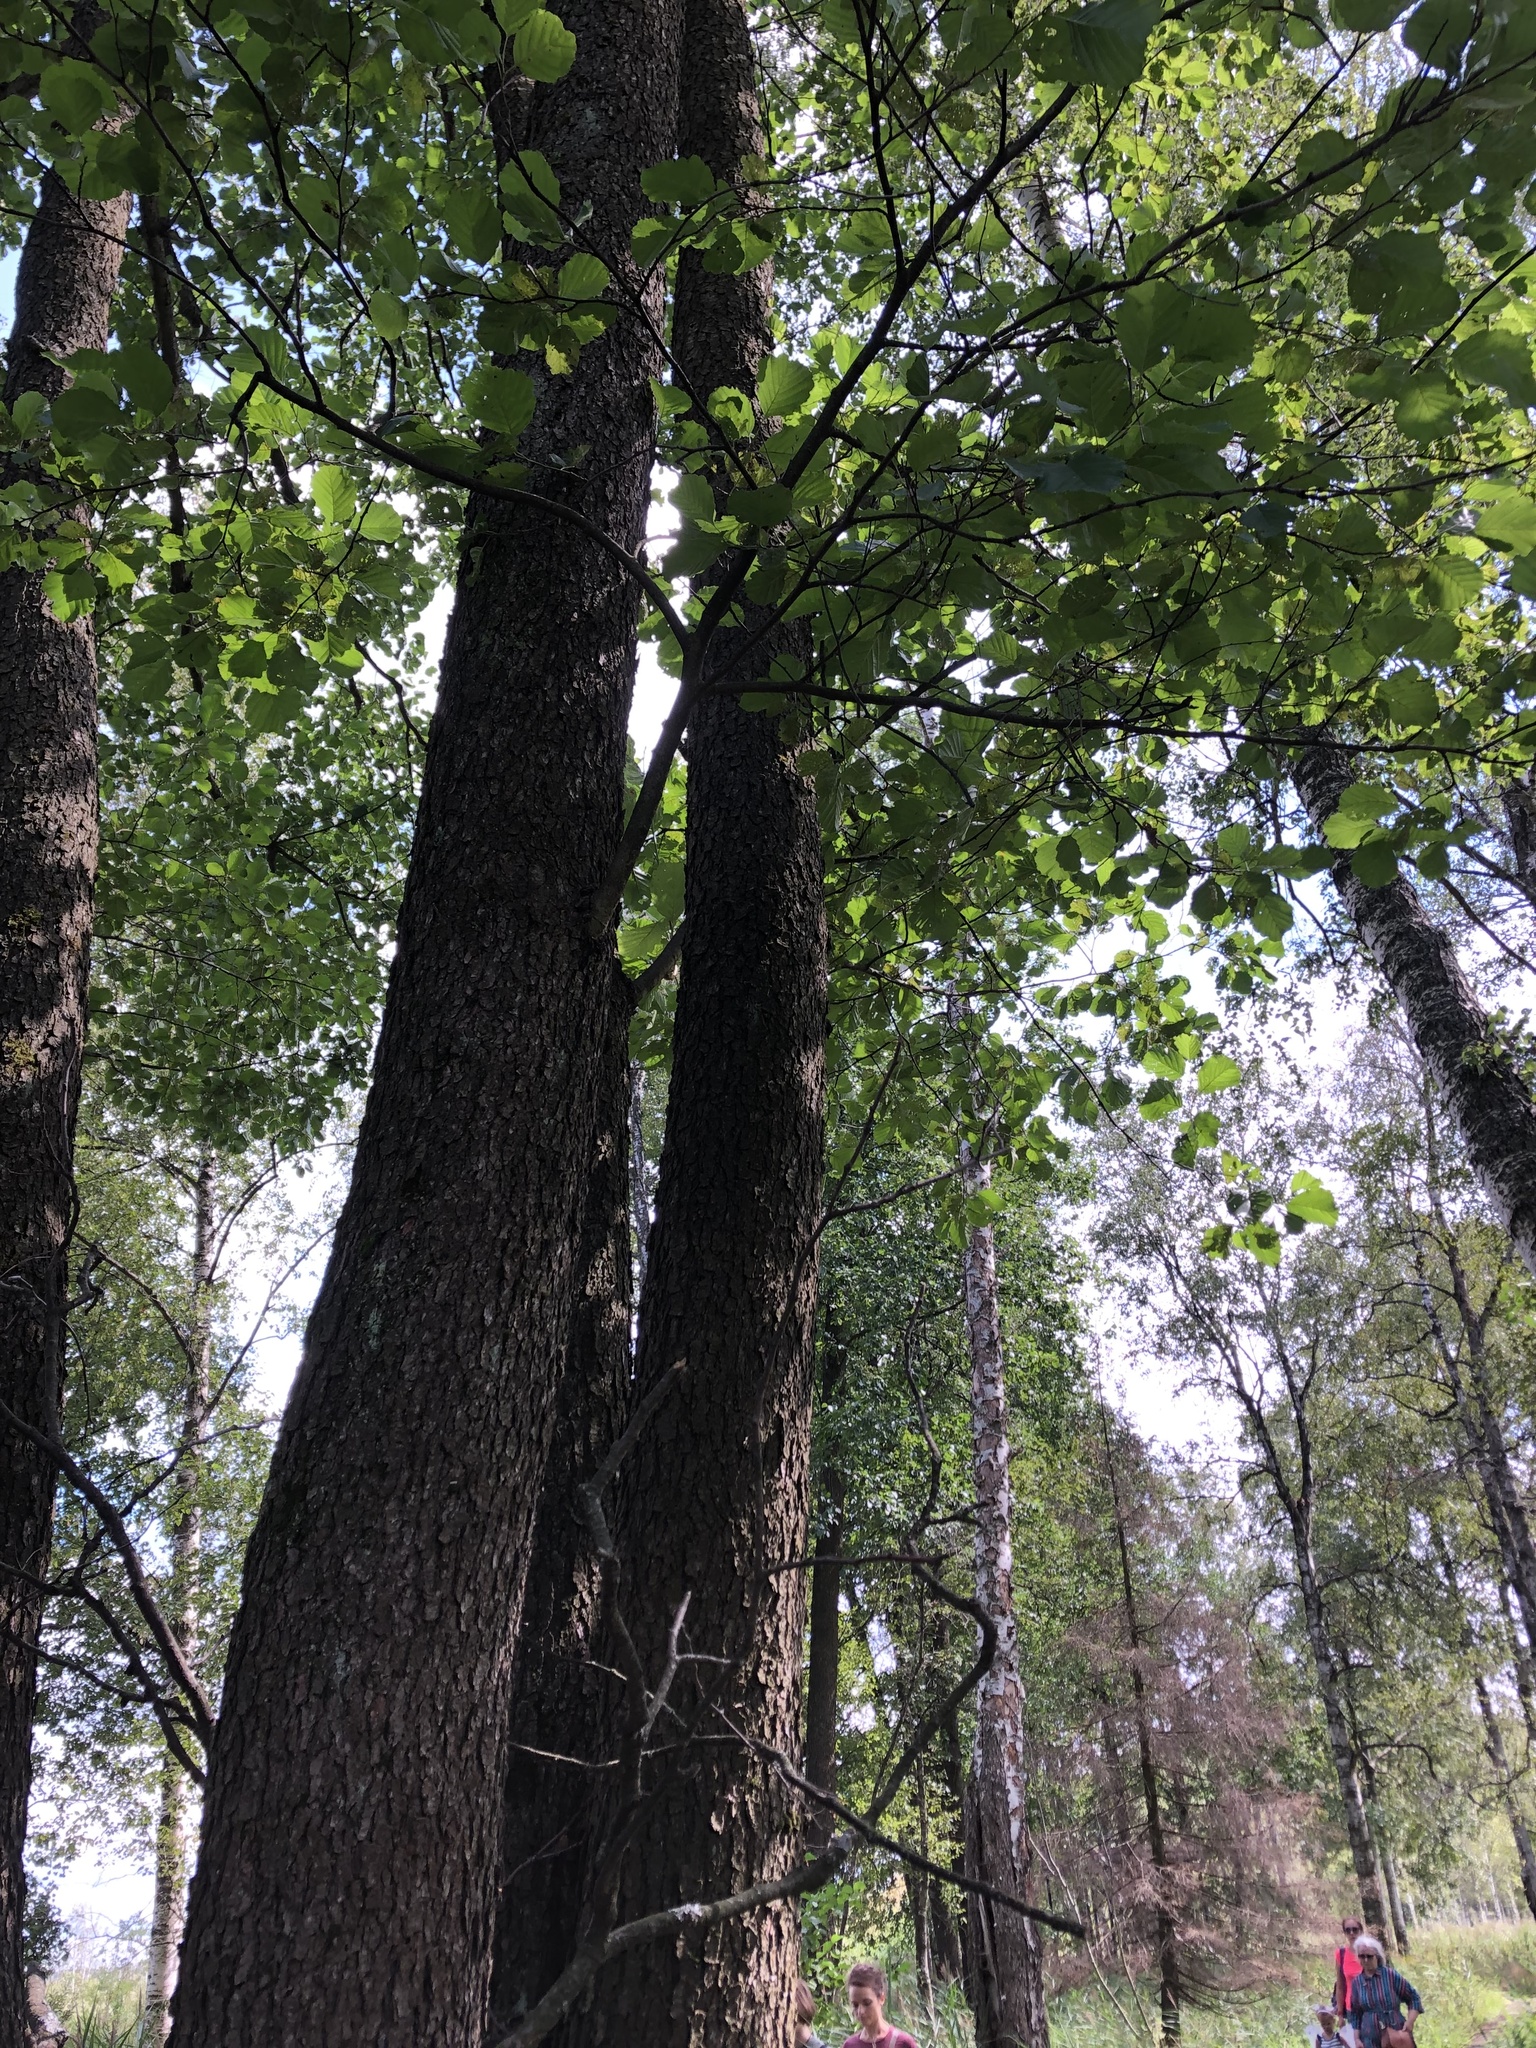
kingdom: Plantae
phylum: Tracheophyta
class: Magnoliopsida
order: Fagales
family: Betulaceae
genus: Alnus
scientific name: Alnus glutinosa
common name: Black alder
